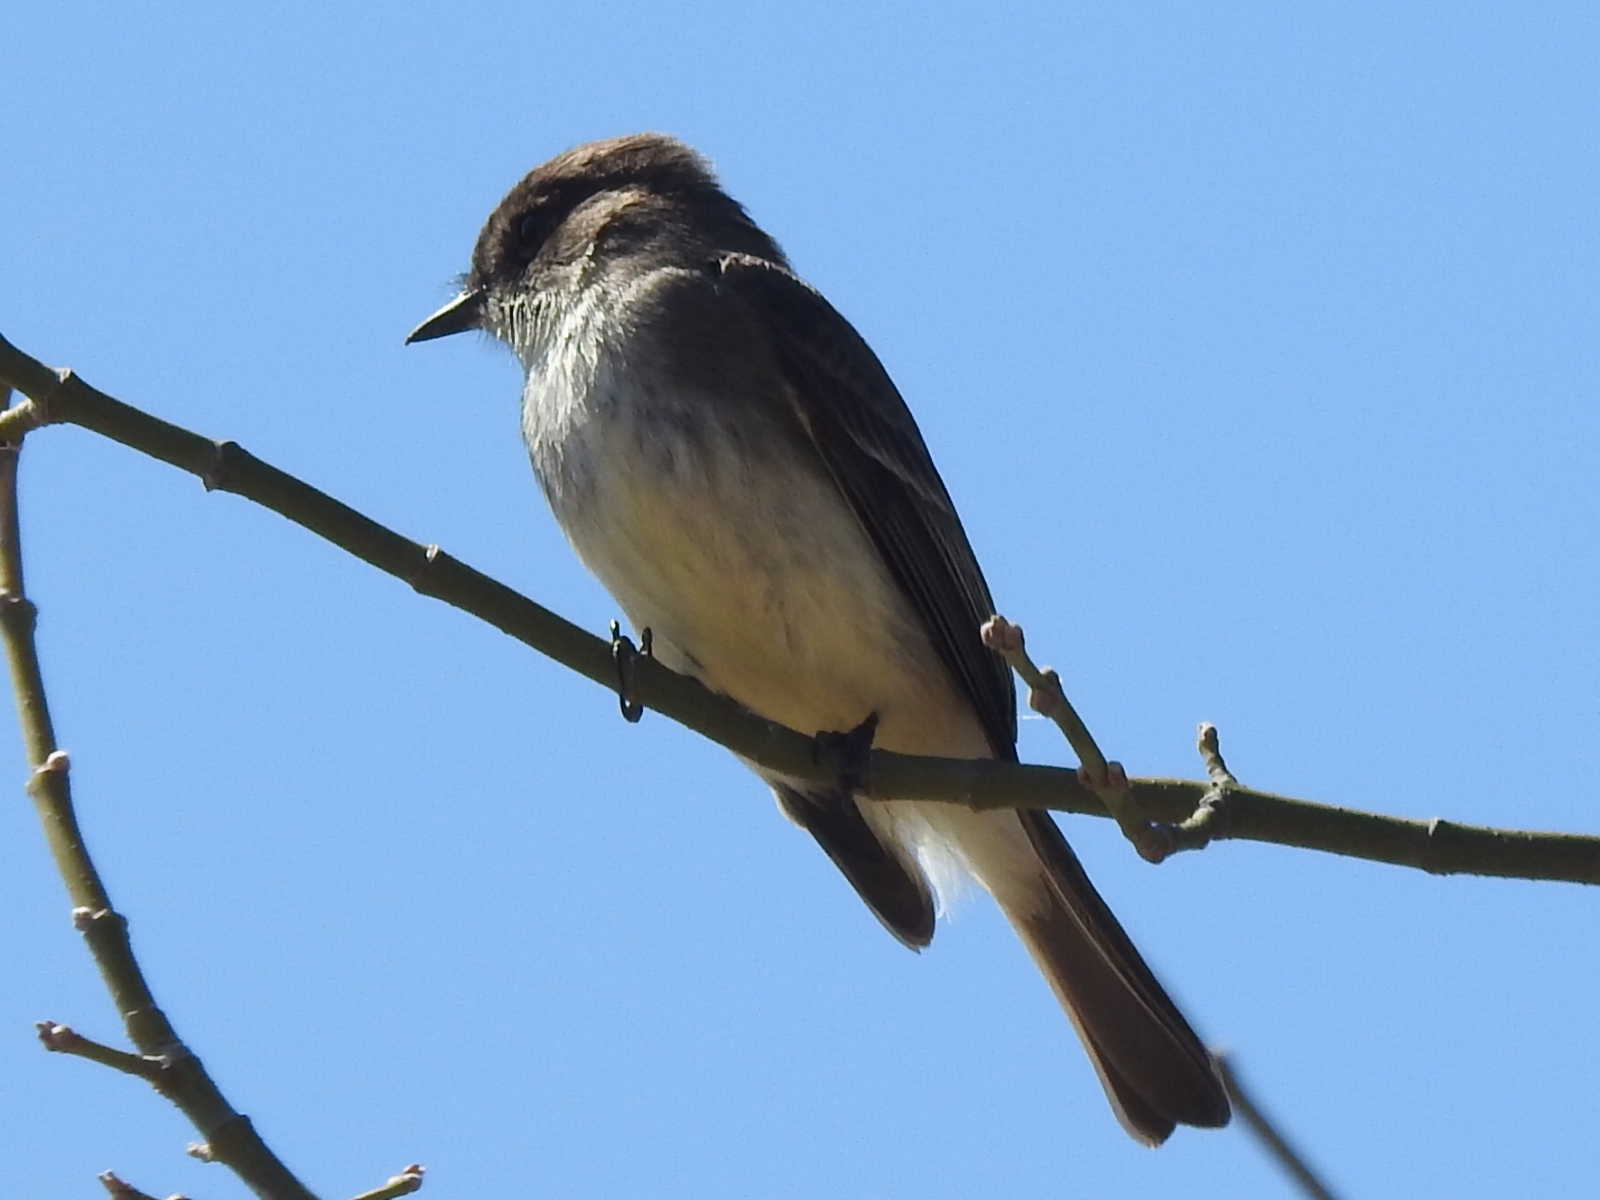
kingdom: Animalia
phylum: Chordata
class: Aves
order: Passeriformes
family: Tyrannidae
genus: Sayornis
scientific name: Sayornis phoebe
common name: Eastern phoebe
